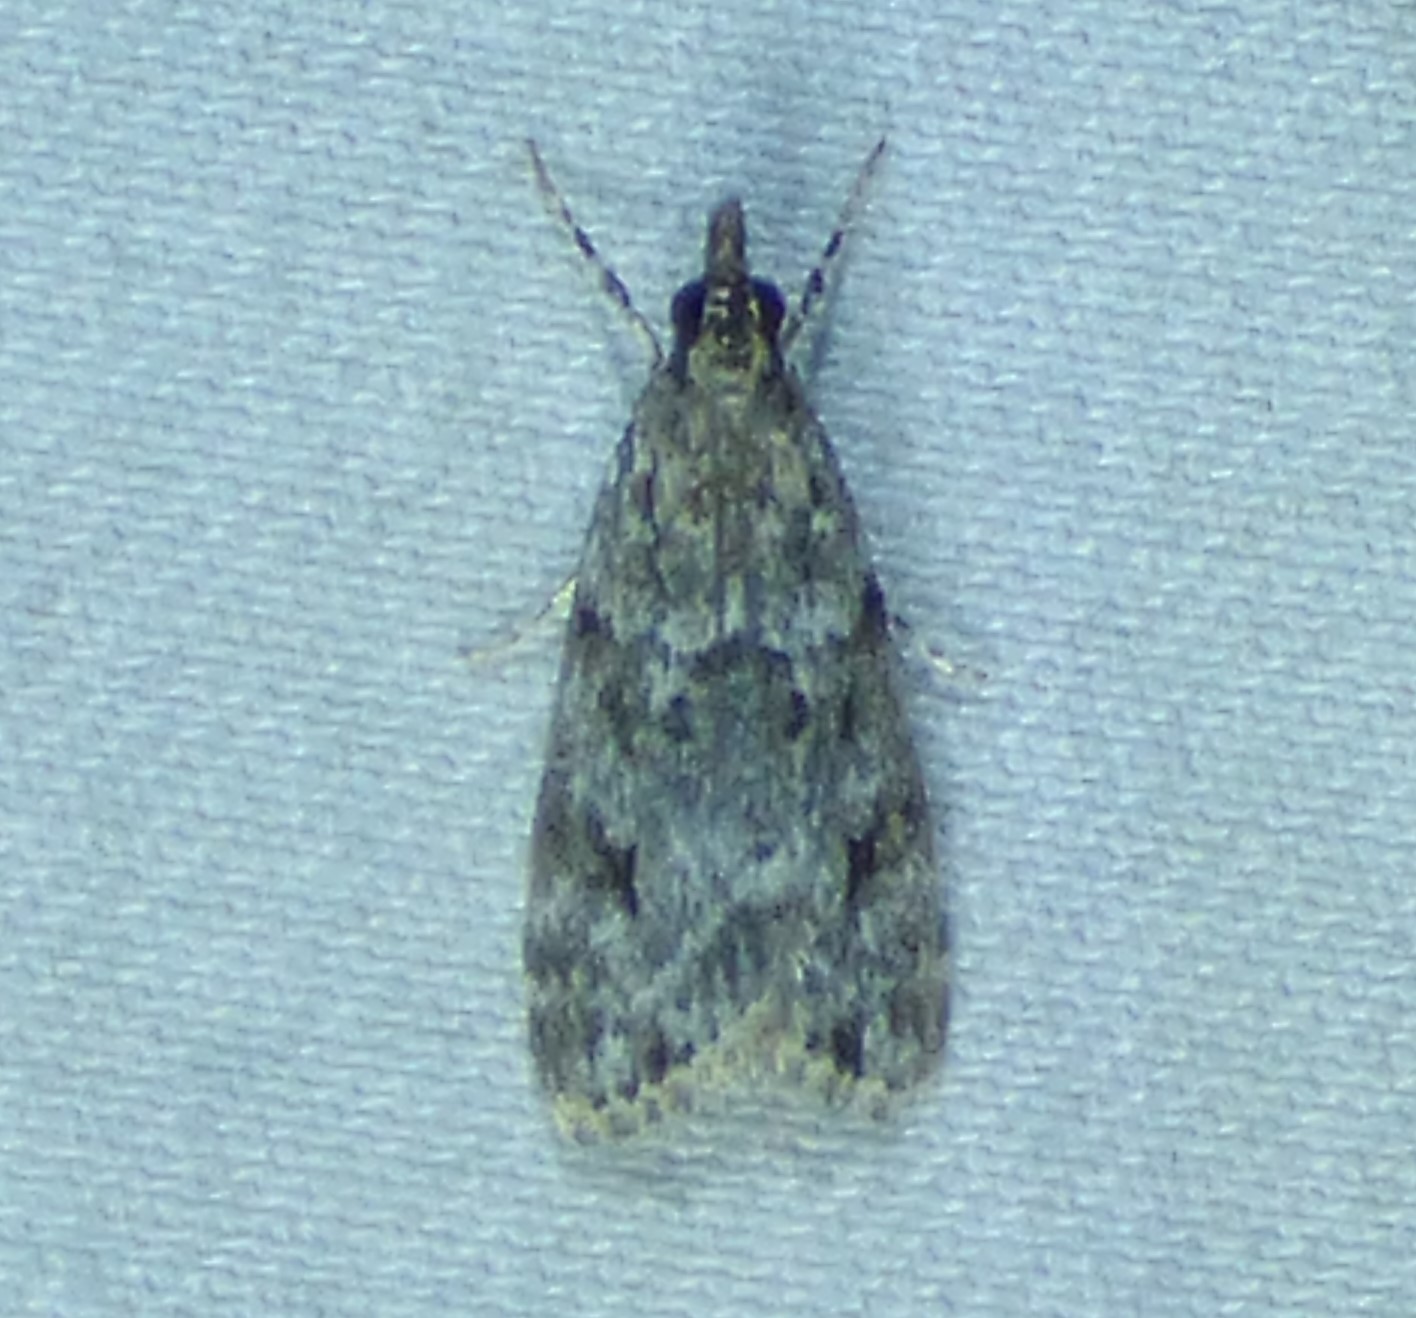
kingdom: Animalia
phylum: Arthropoda
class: Insecta
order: Lepidoptera
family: Crambidae
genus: Eudonia
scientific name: Eudonia heterosalis
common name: Mcdunnough's eudonia
